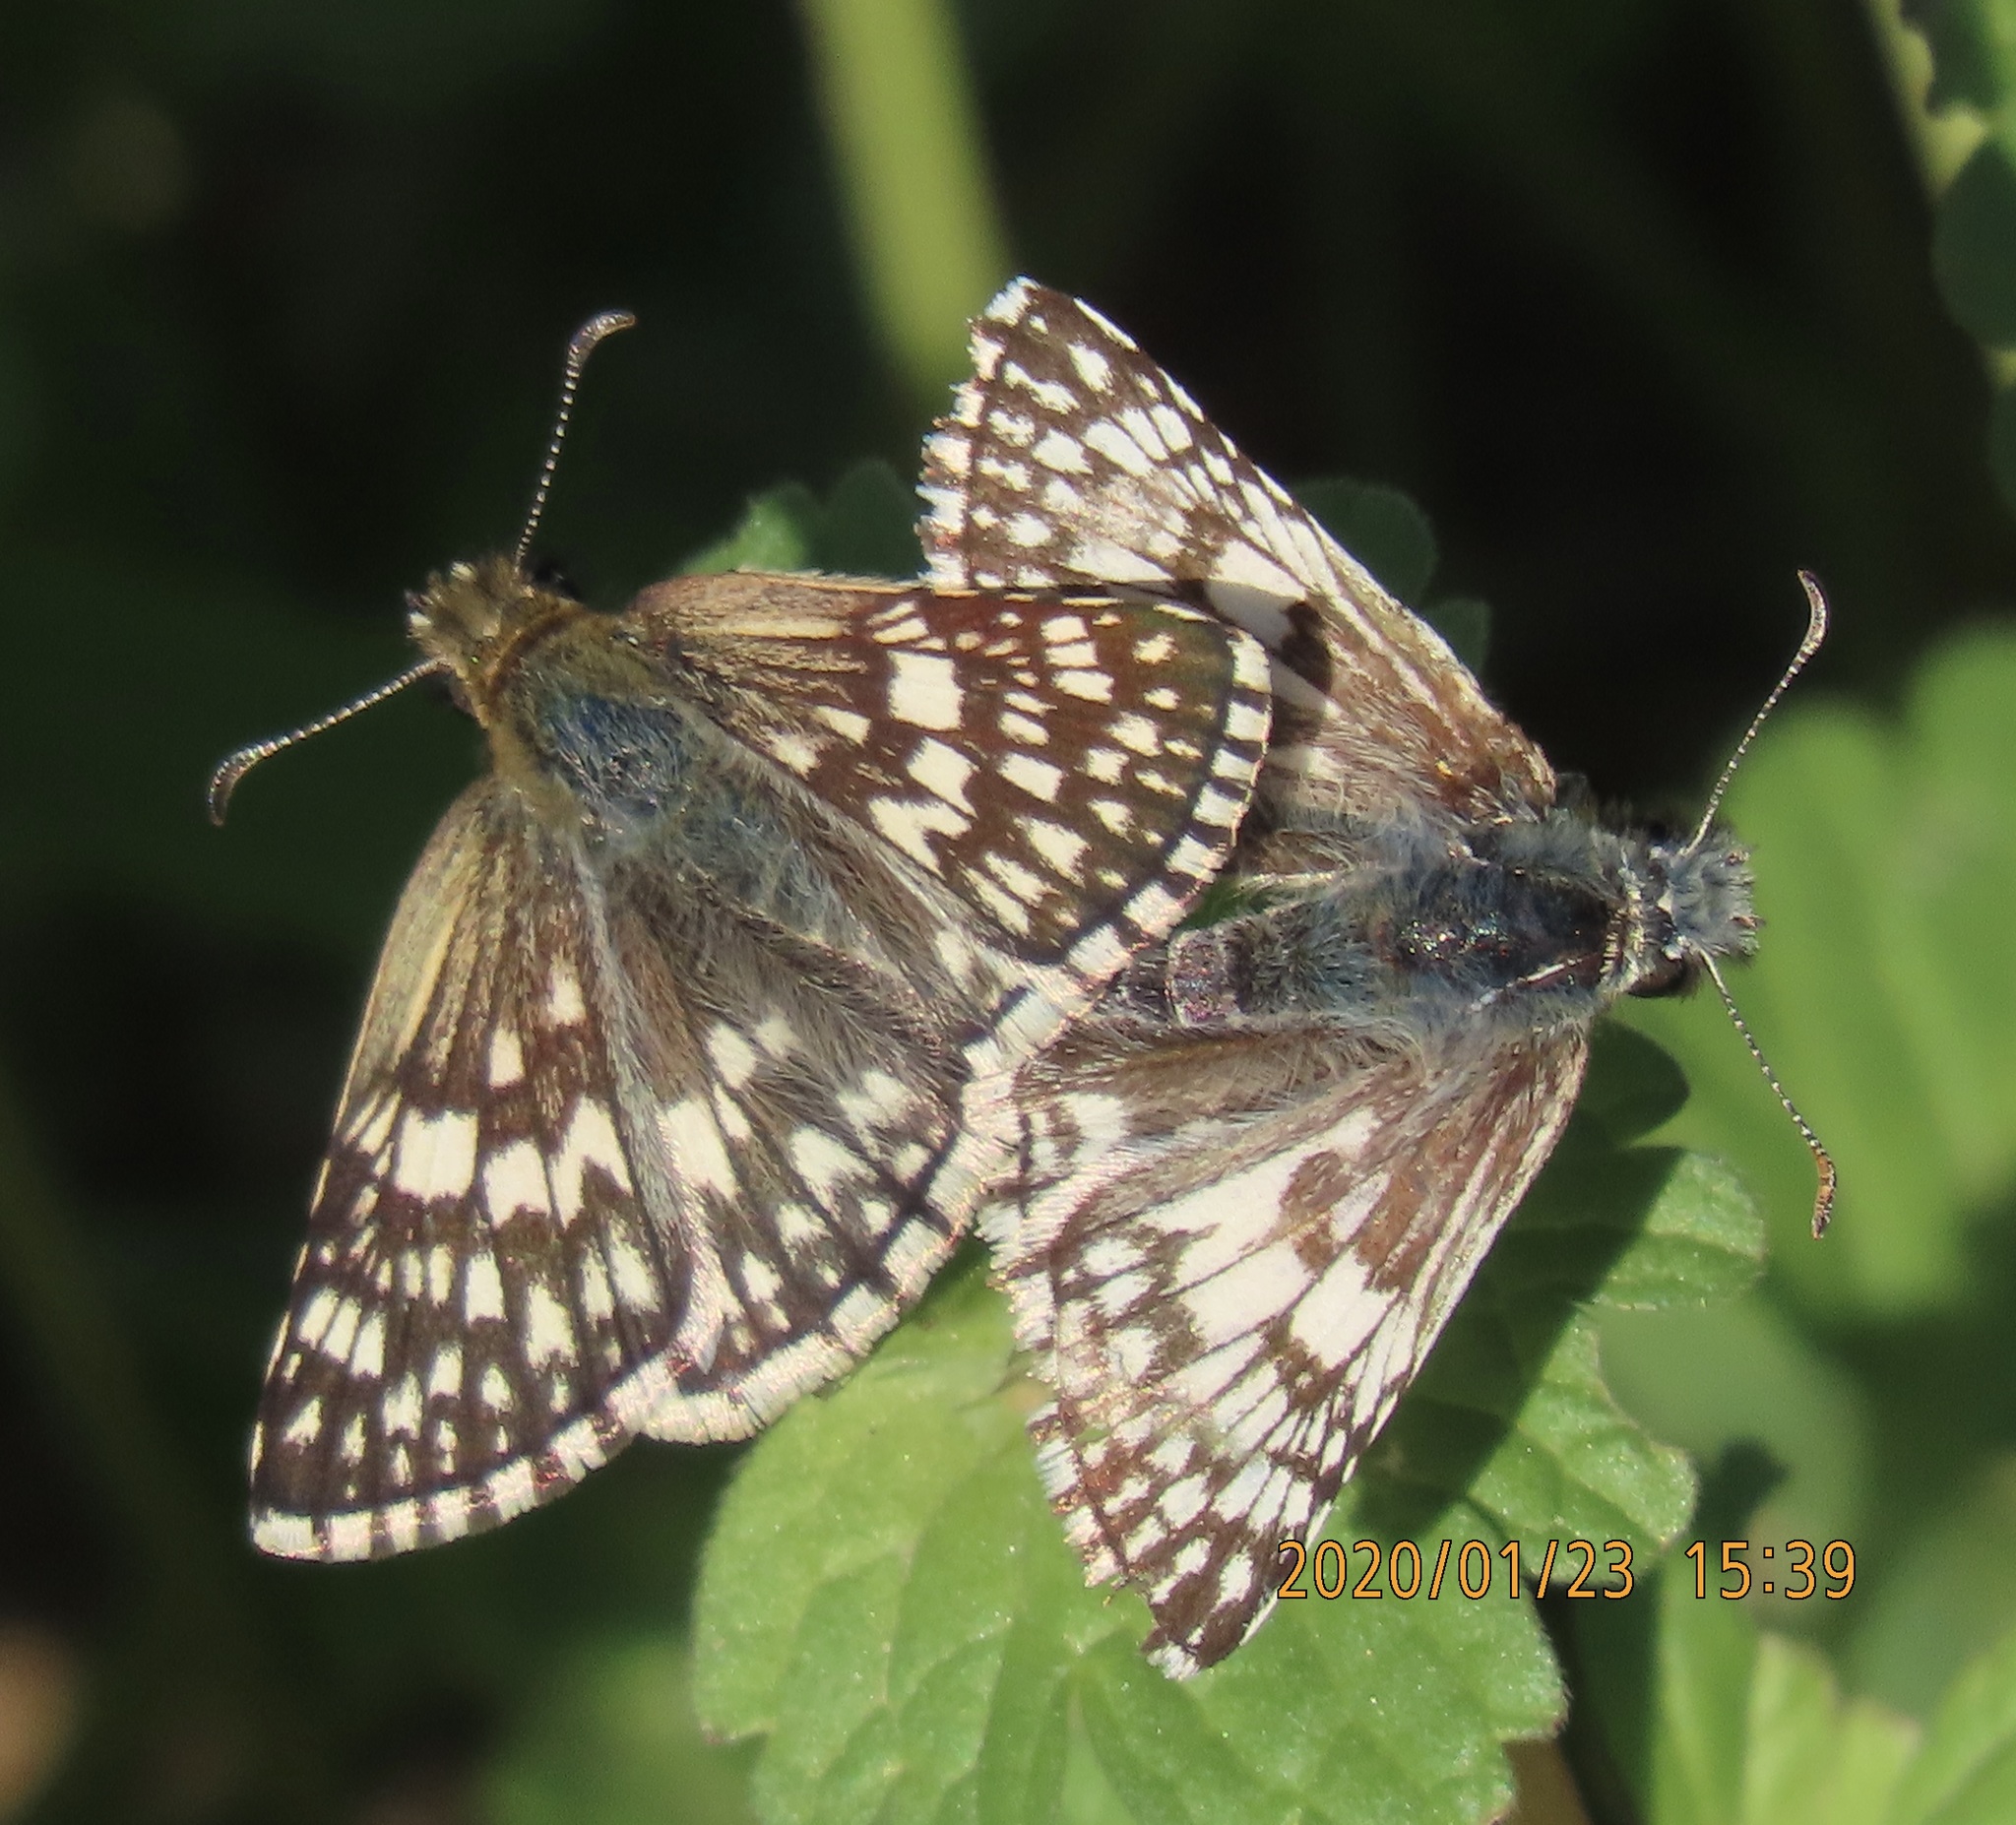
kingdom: Animalia
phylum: Arthropoda
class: Insecta
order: Lepidoptera
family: Hesperiidae
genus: Burnsius
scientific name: Burnsius
